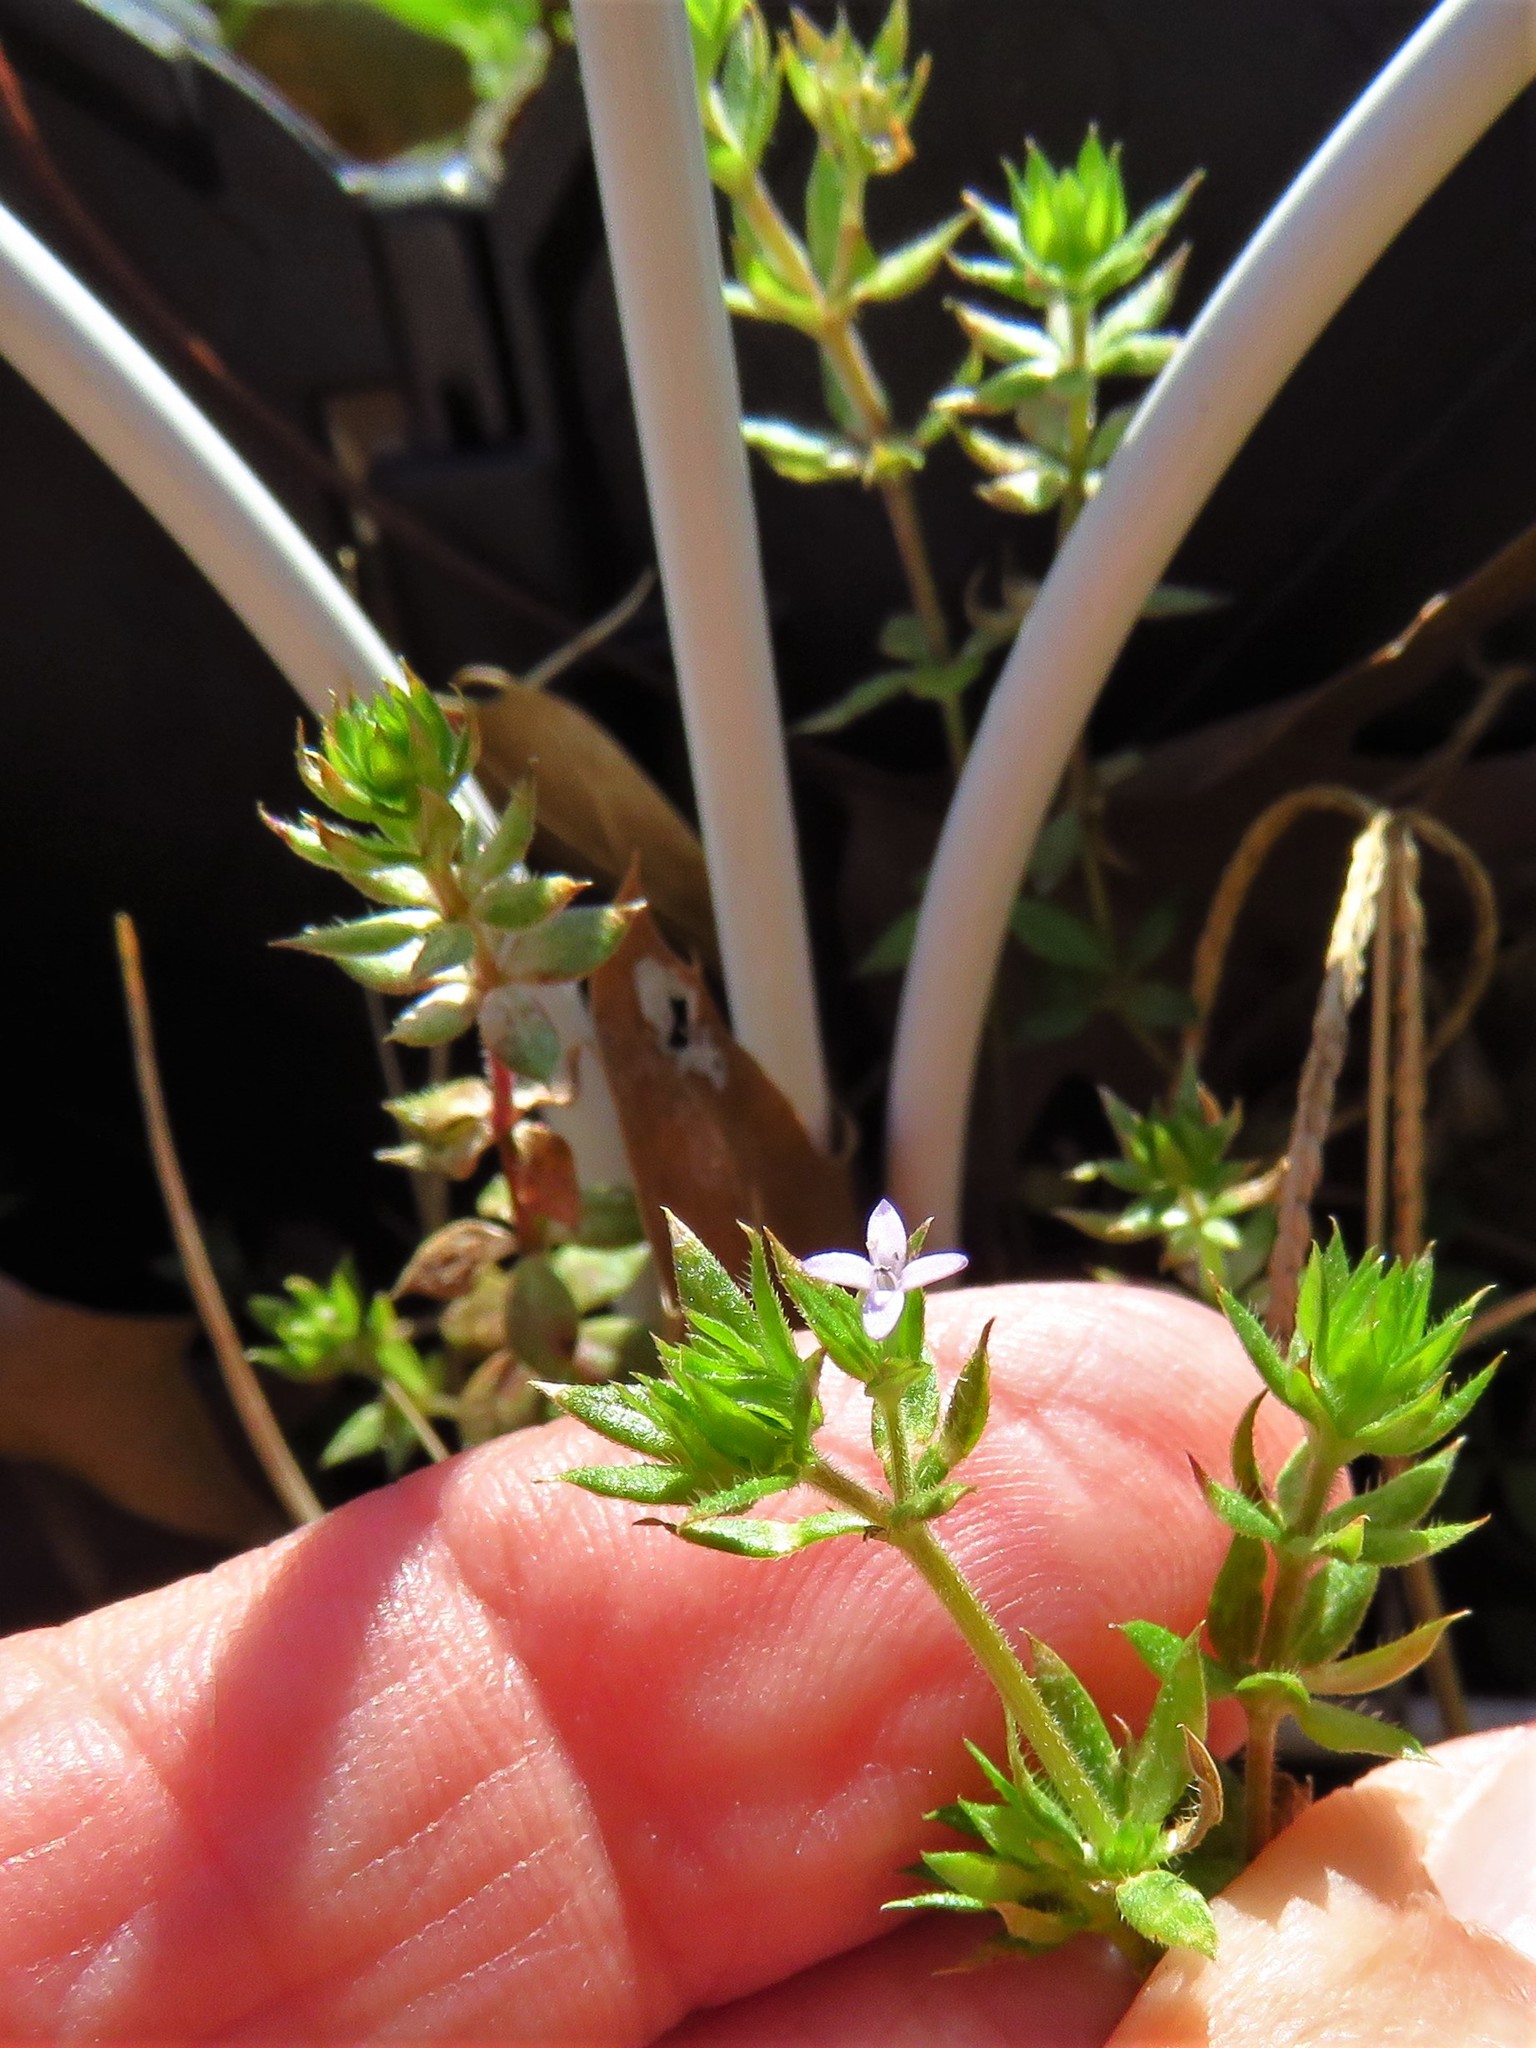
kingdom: Plantae
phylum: Tracheophyta
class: Magnoliopsida
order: Gentianales
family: Rubiaceae
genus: Sherardia
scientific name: Sherardia arvensis
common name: Field madder
